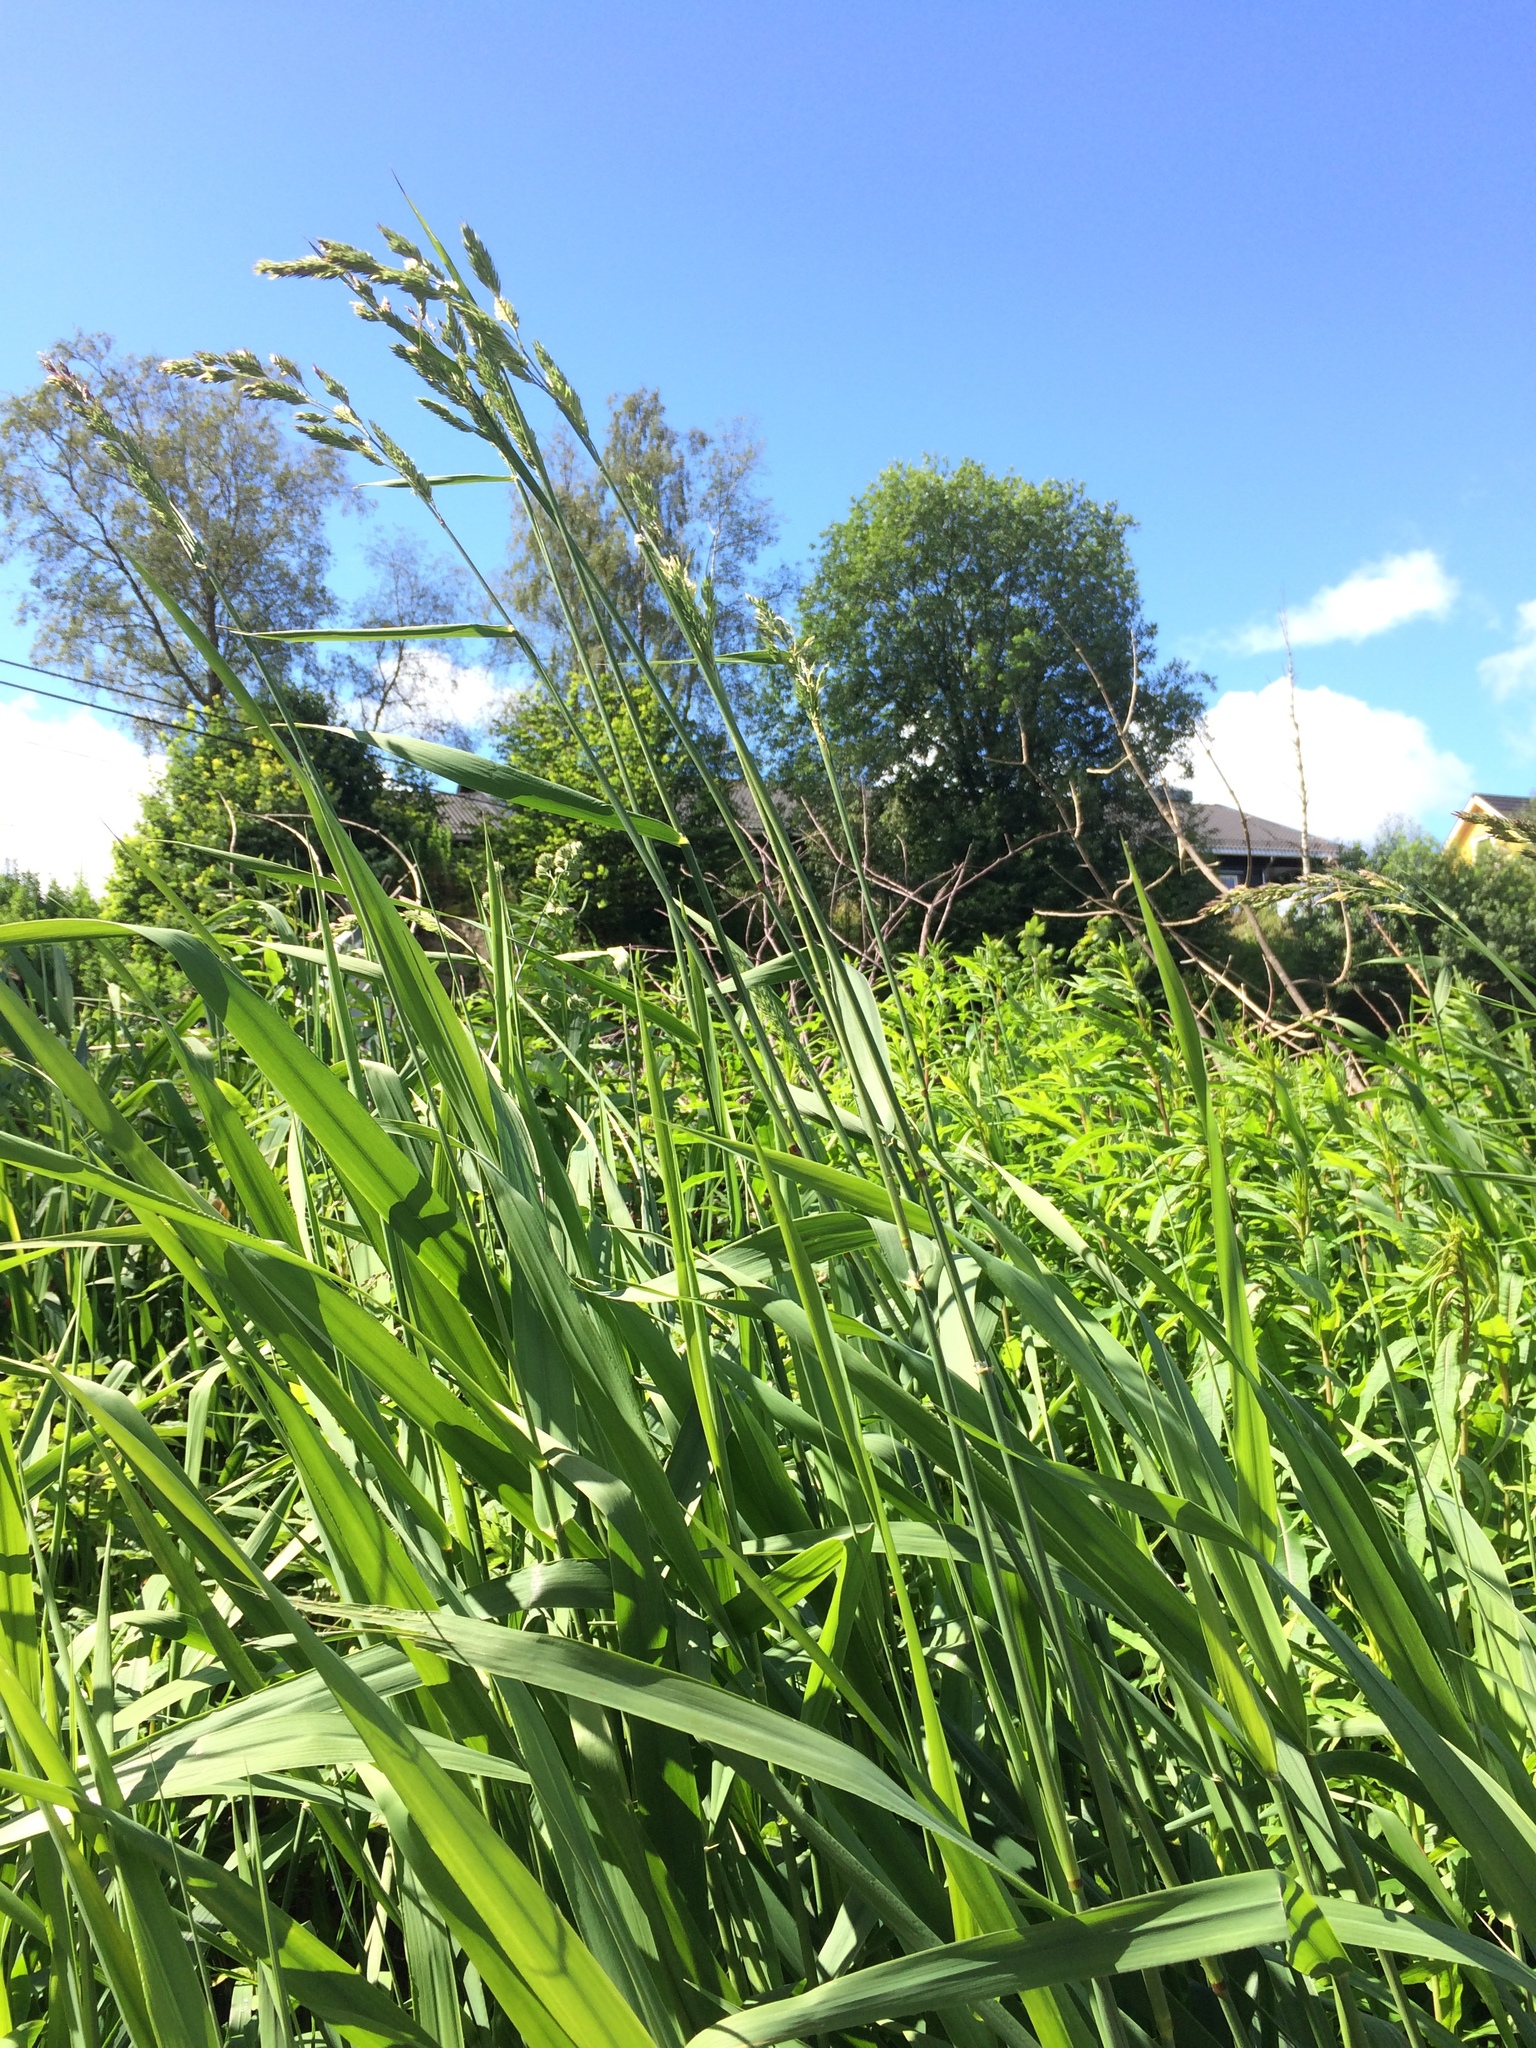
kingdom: Plantae
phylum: Tracheophyta
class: Liliopsida
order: Poales
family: Poaceae
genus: Phalaris
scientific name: Phalaris arundinacea
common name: Reed canary-grass
